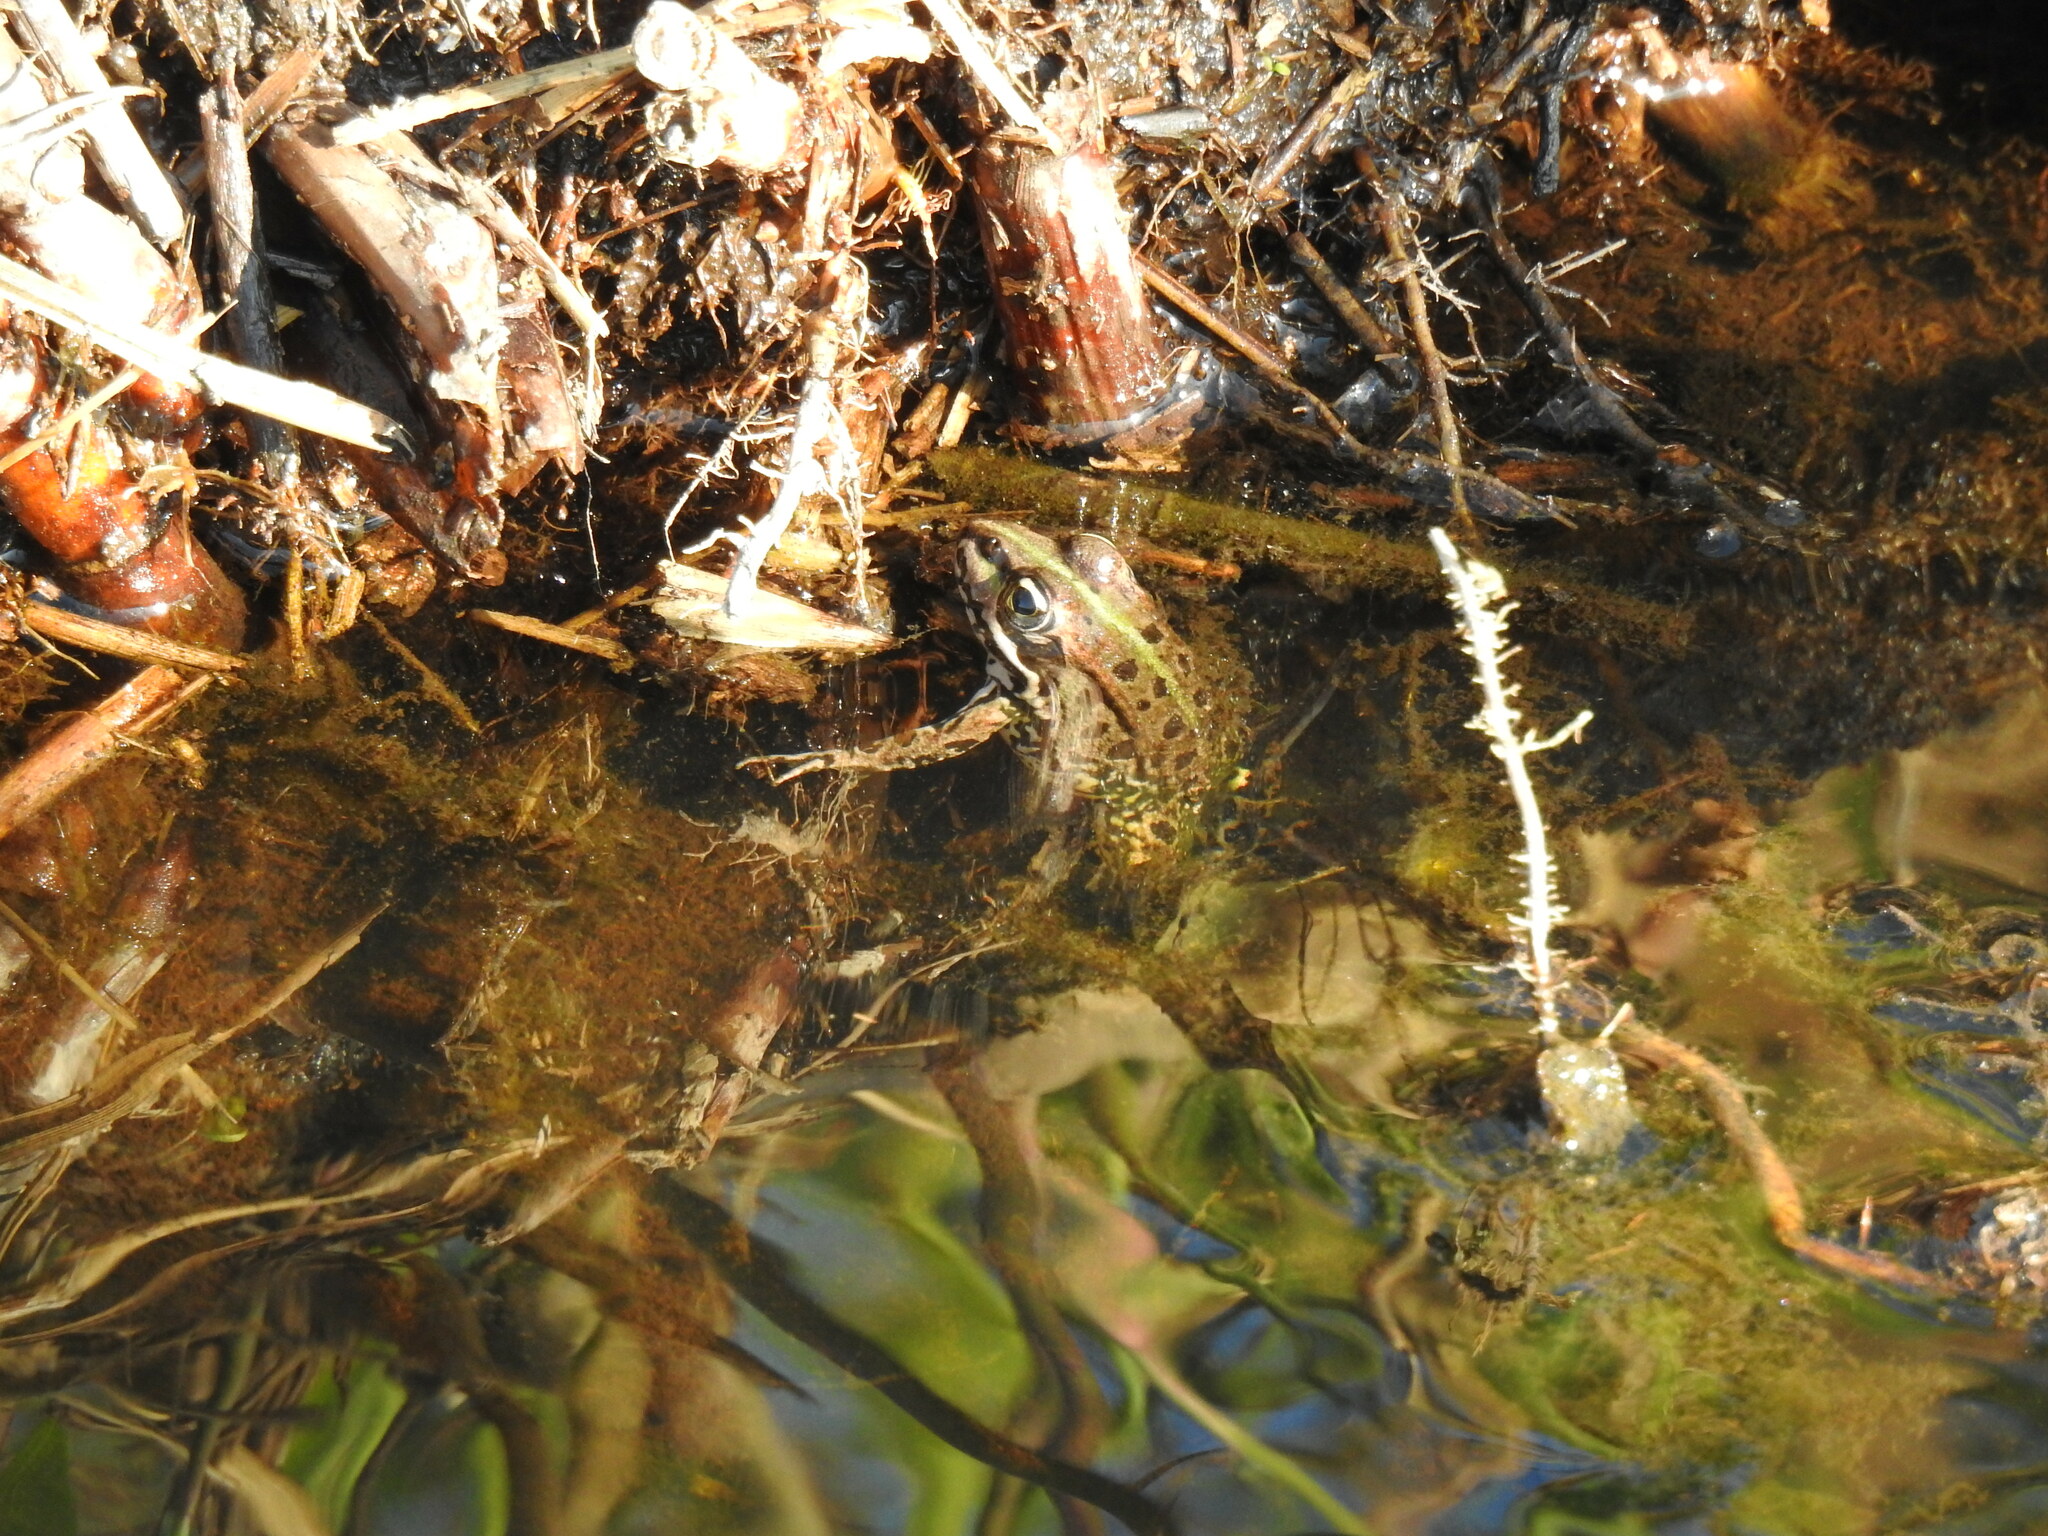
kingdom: Animalia
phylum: Chordata
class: Amphibia
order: Anura
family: Ranidae
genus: Pelophylax
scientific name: Pelophylax perezi
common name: Perez's frog
